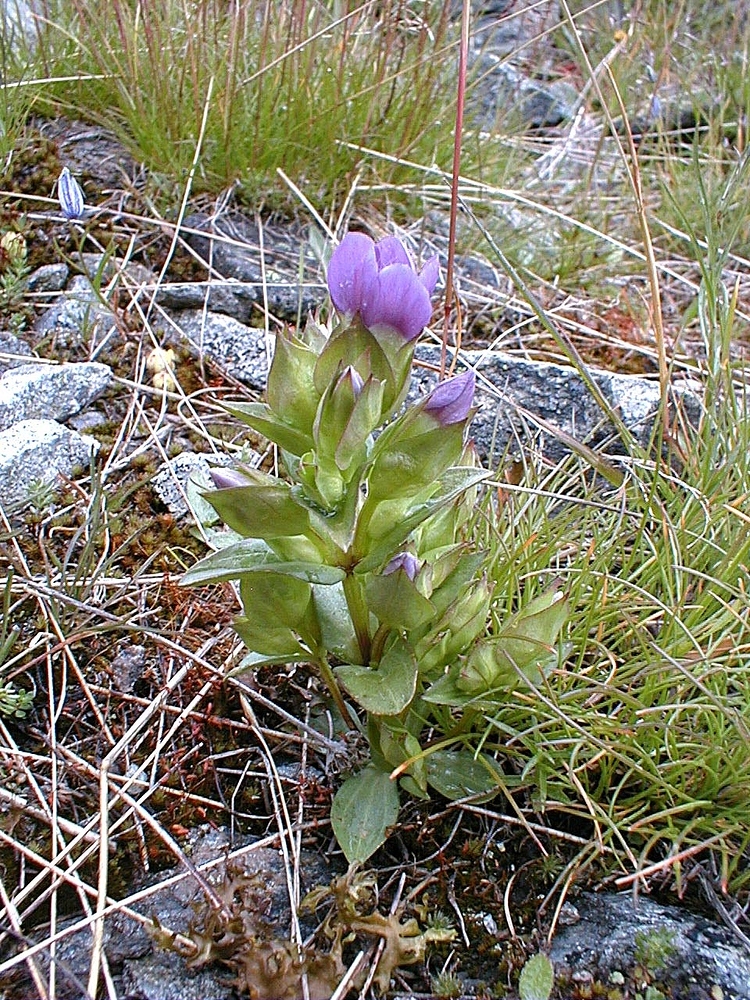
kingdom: Plantae
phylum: Tracheophyta
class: Magnoliopsida
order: Gentianales
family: Gentianaceae
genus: Gentianella
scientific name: Gentianella campestris
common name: Field gentian
